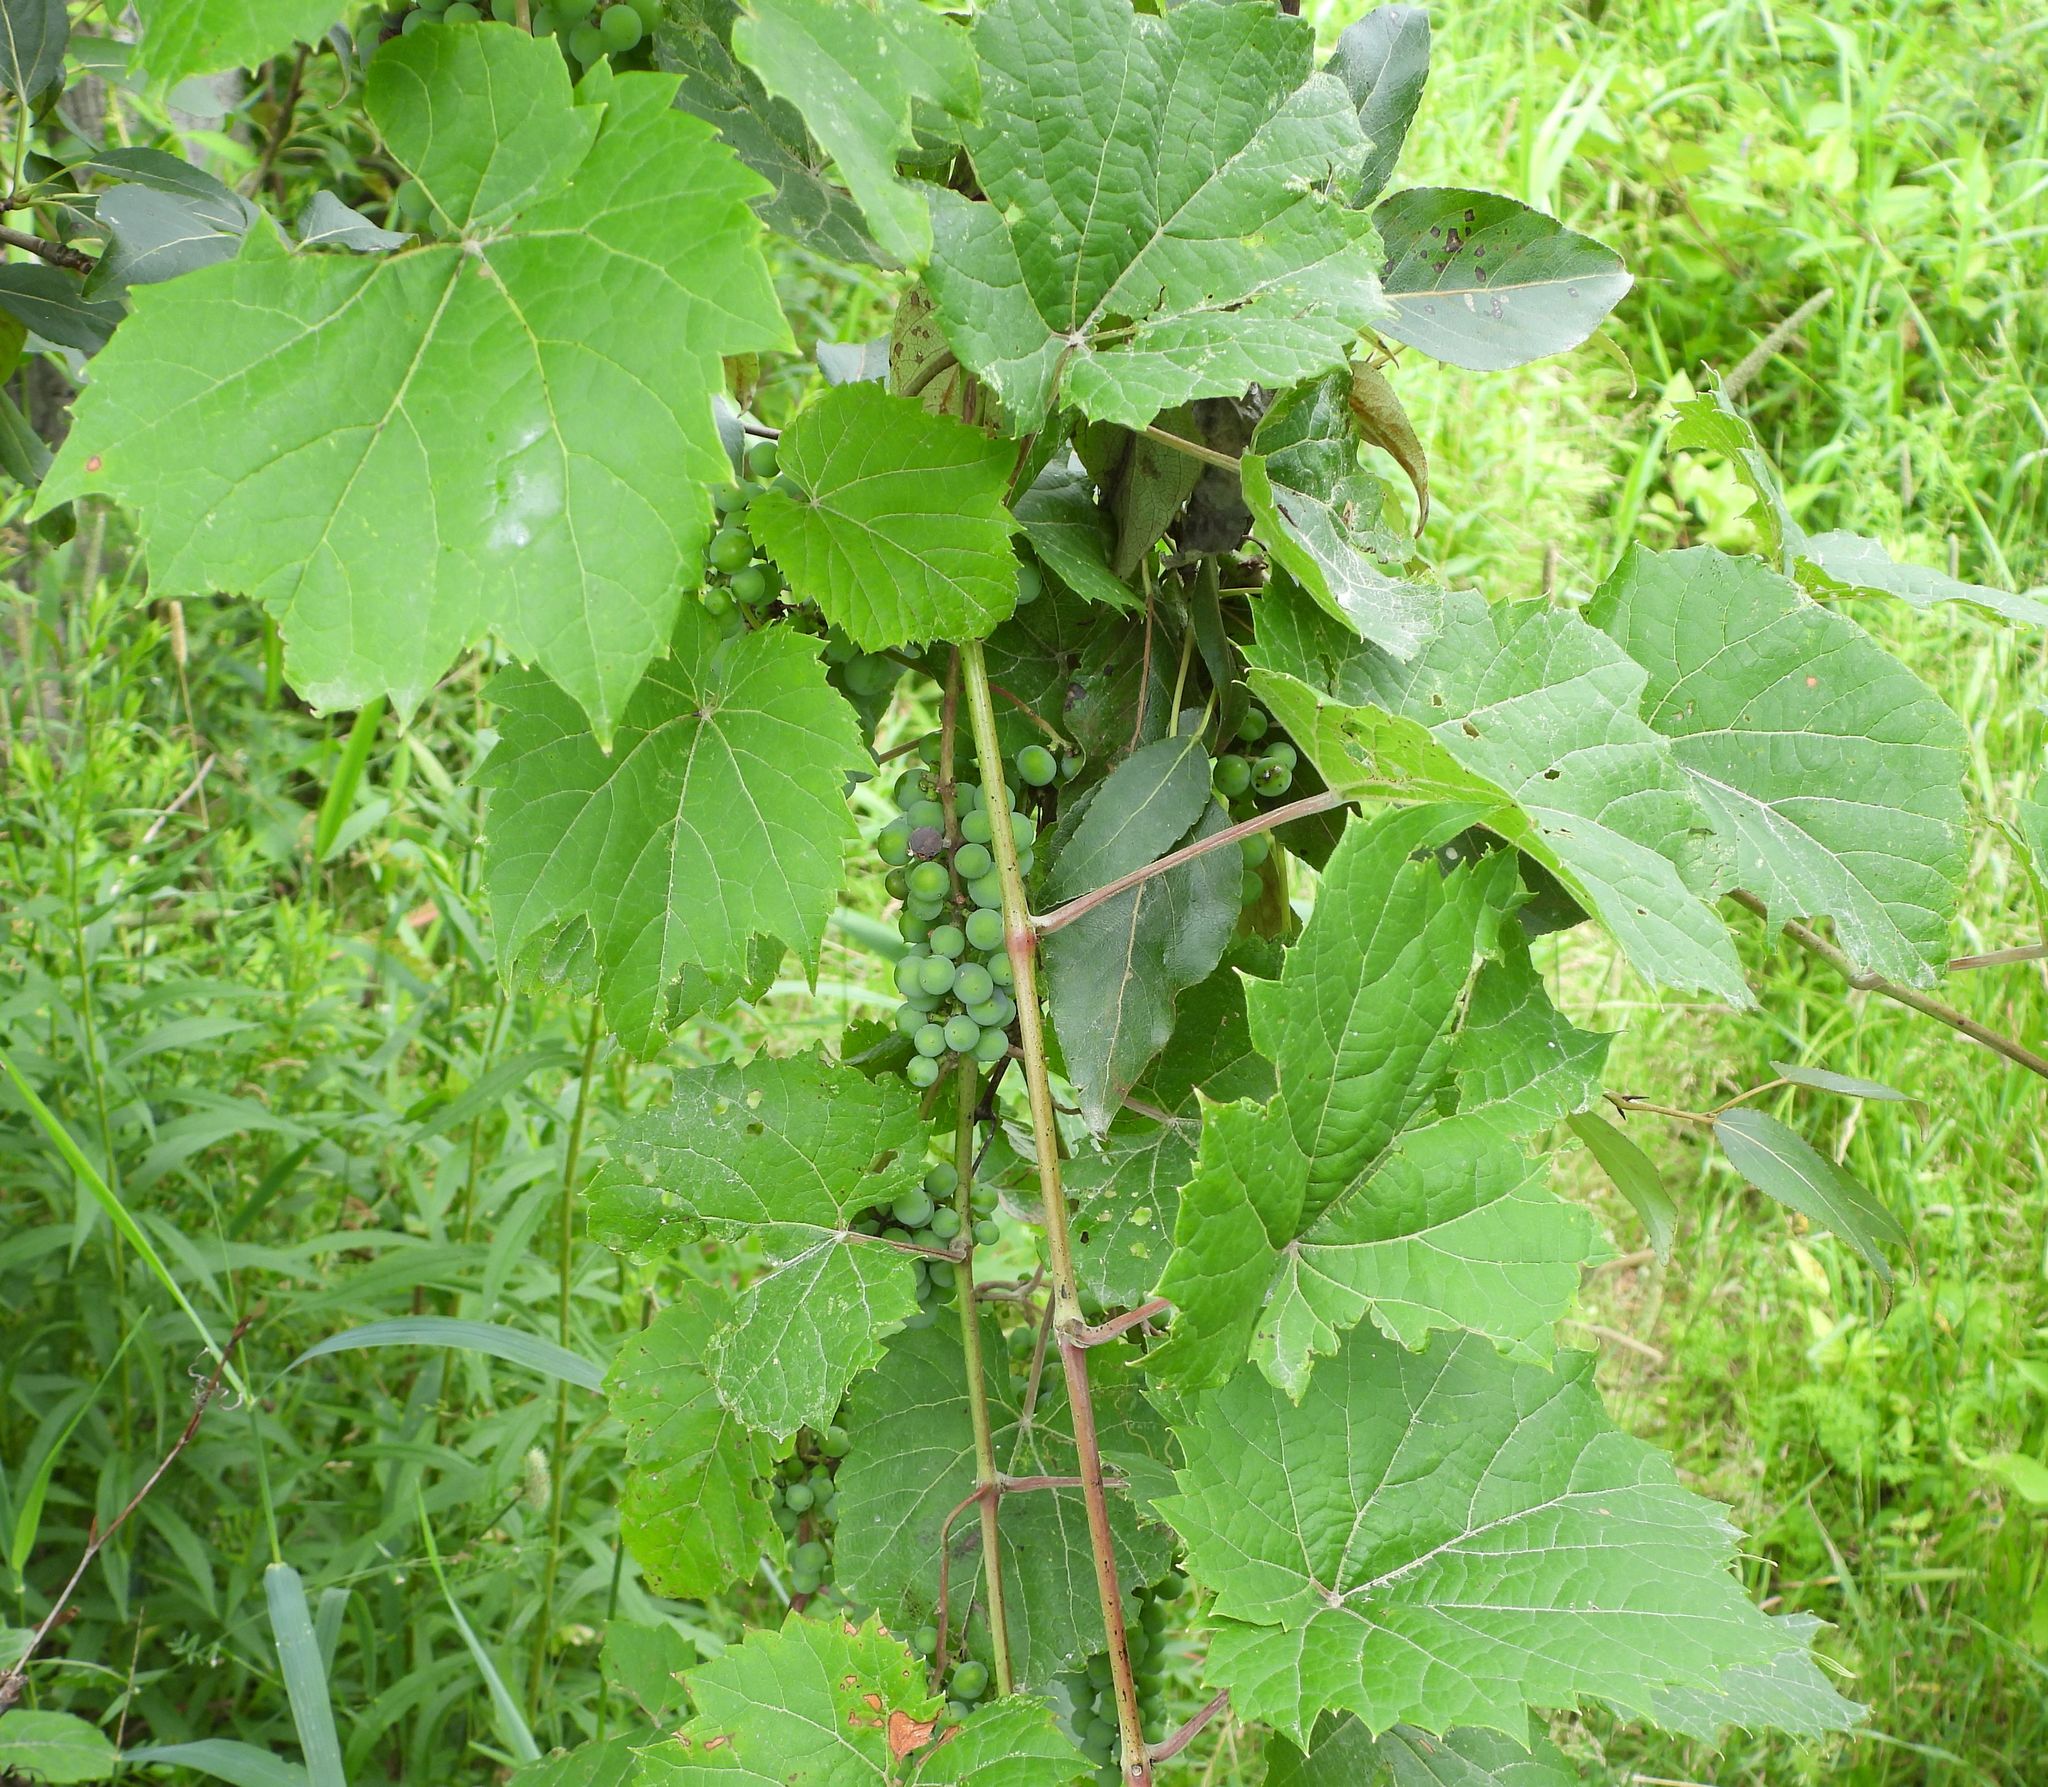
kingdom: Plantae
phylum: Tracheophyta
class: Magnoliopsida
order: Vitales
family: Vitaceae
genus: Vitis
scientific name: Vitis riparia
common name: Frost grape
